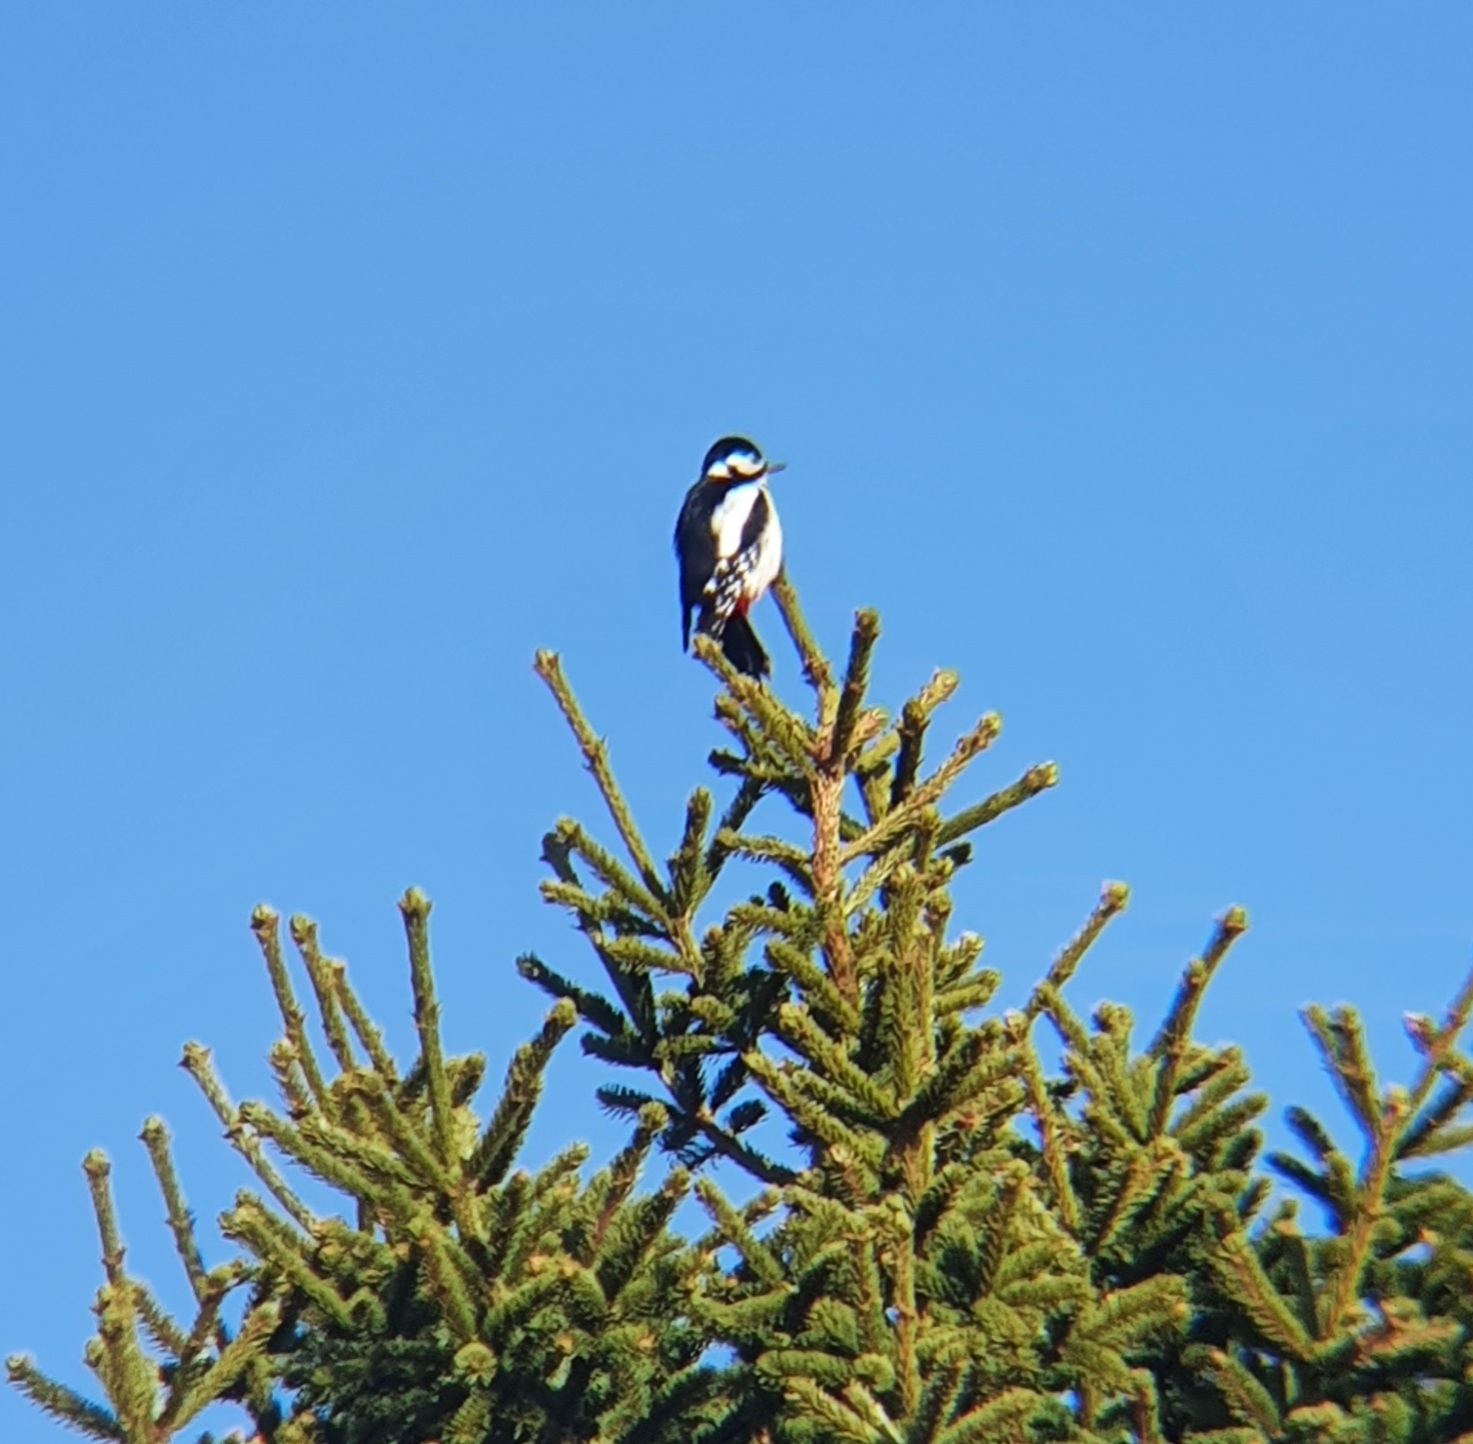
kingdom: Animalia
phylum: Chordata
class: Aves
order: Piciformes
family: Picidae
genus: Dendrocopos
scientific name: Dendrocopos major
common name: Great spotted woodpecker
